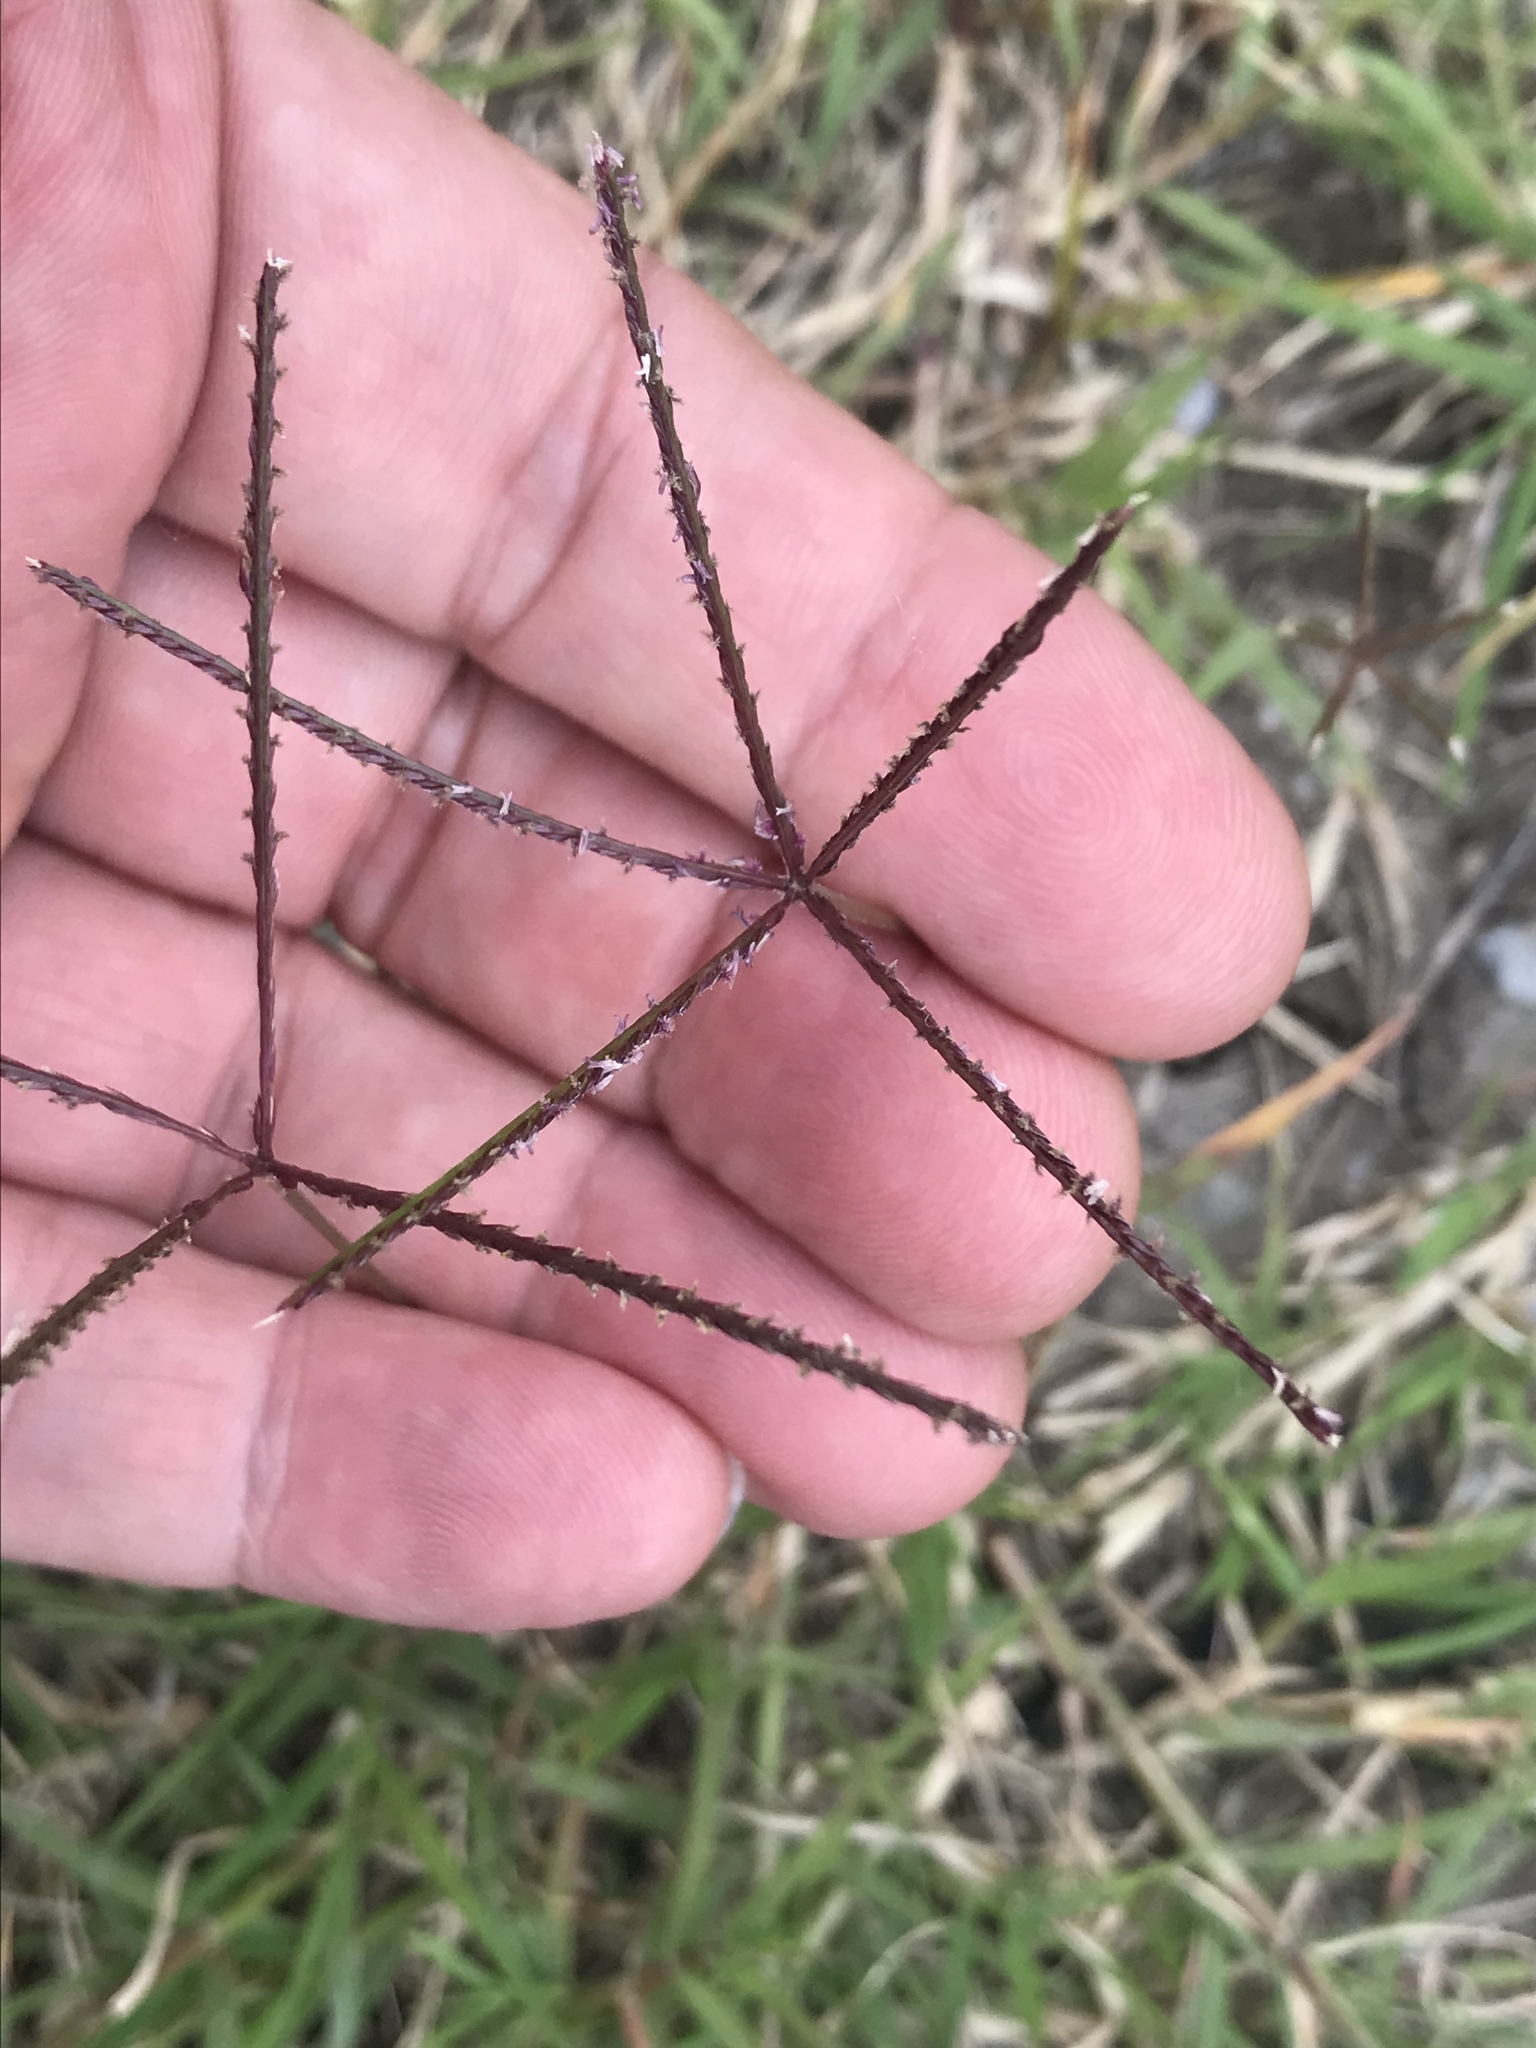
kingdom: Plantae
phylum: Tracheophyta
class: Liliopsida
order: Poales
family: Poaceae
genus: Cynodon
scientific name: Cynodon dactylon
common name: Bermuda grass
